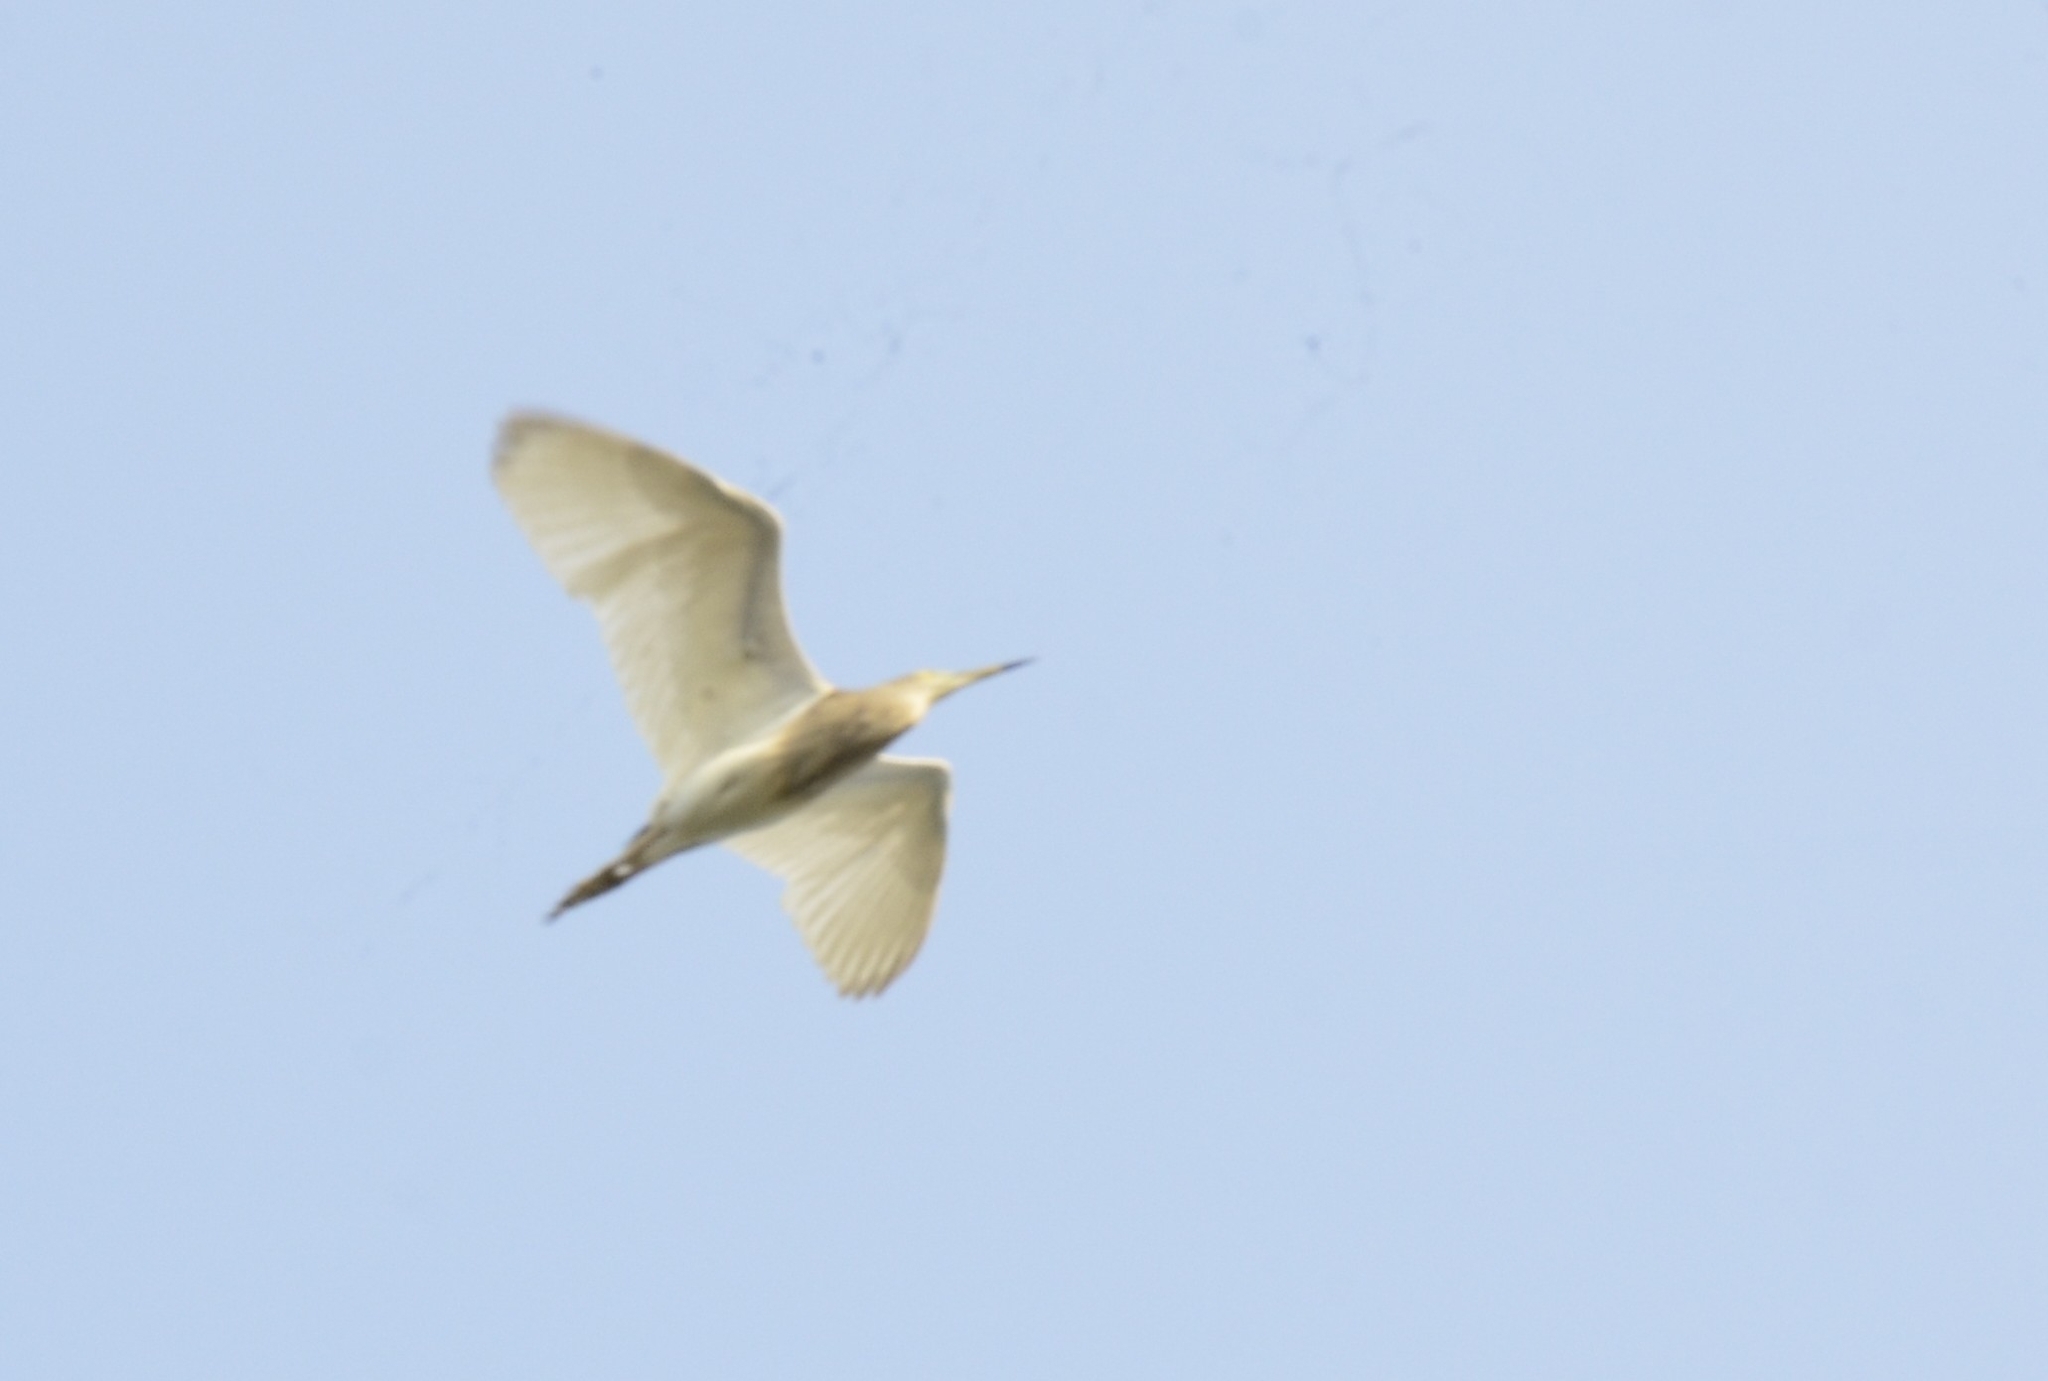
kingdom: Animalia
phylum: Chordata
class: Aves
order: Pelecaniformes
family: Ardeidae
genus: Ardeola
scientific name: Ardeola grayii
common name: Indian pond heron
